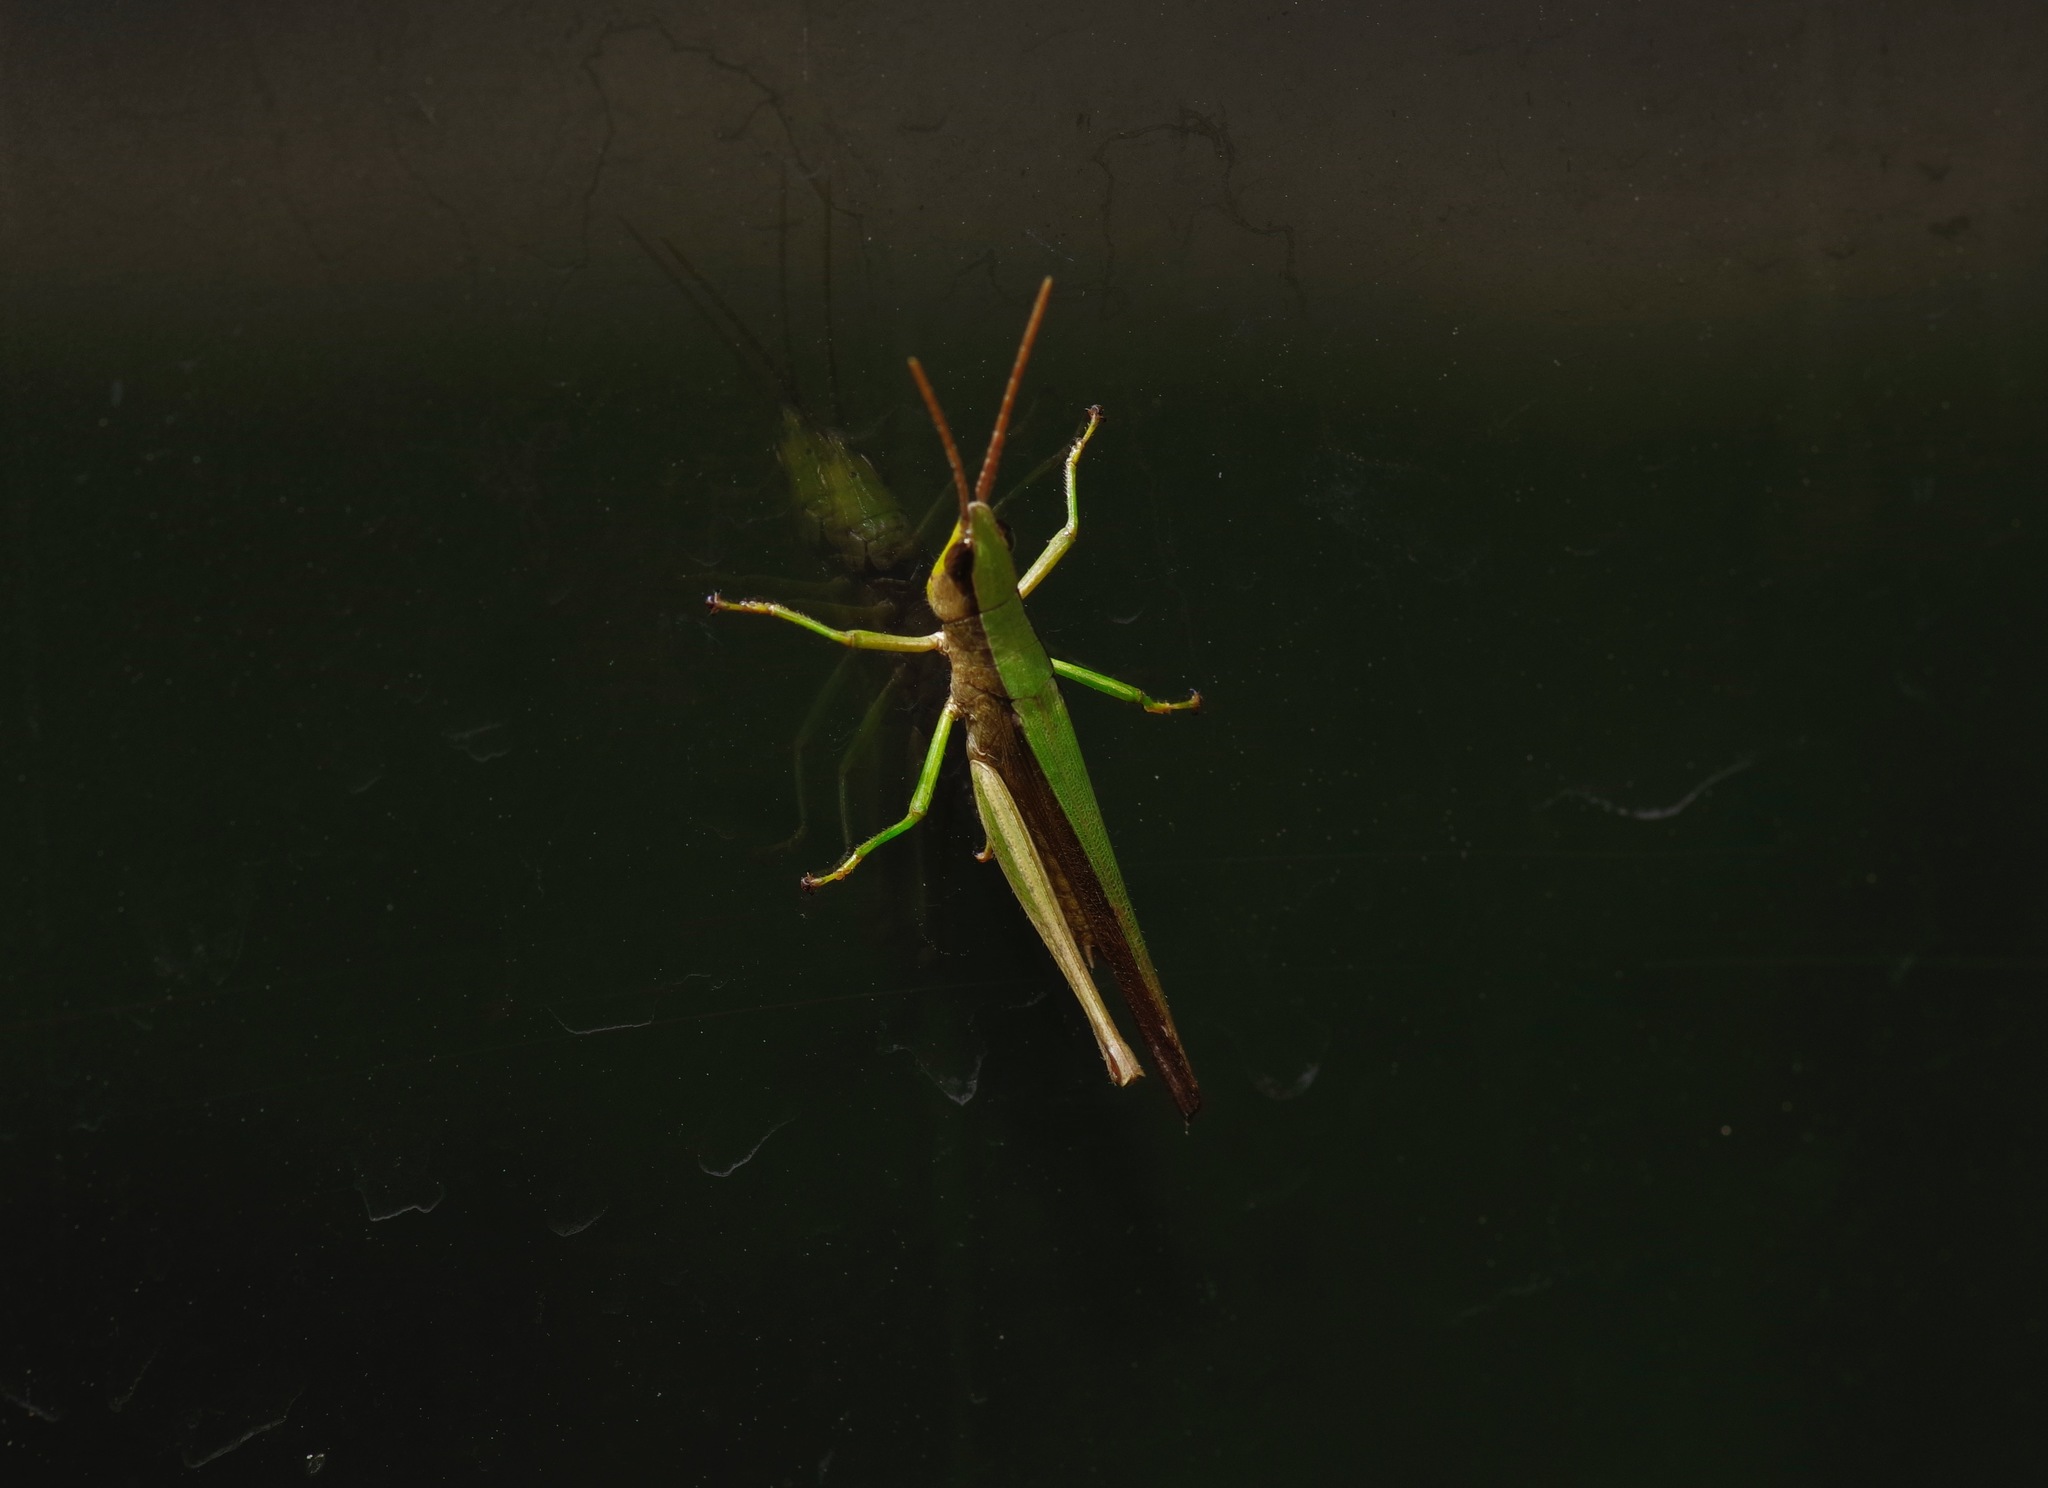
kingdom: Animalia
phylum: Arthropoda
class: Insecta
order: Orthoptera
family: Acrididae
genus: Metaleptea
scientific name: Metaleptea brevicornis
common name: Clipped-wing grasshopper
